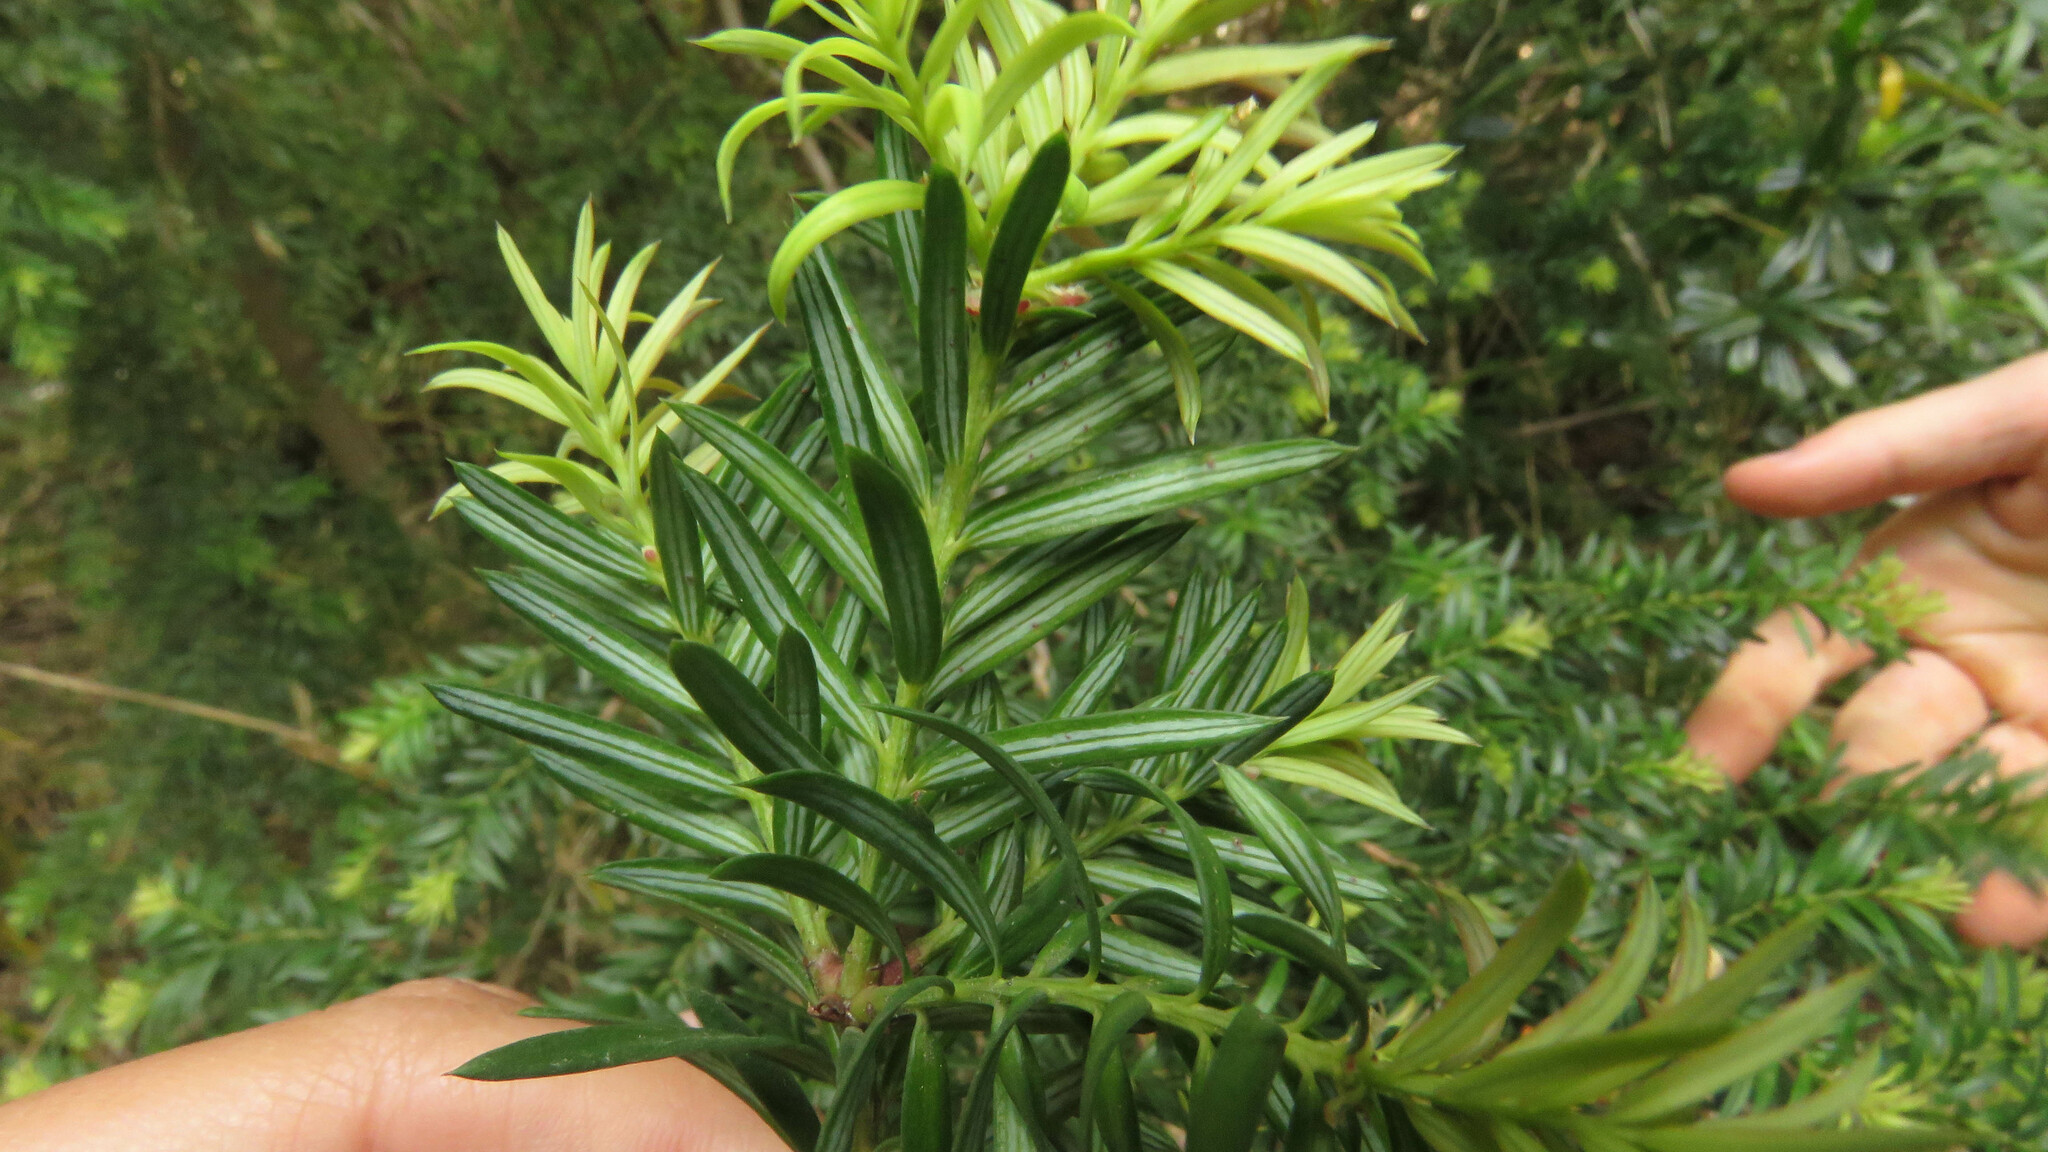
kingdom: Plantae
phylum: Tracheophyta
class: Pinopsida
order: Pinales
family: Podocarpaceae
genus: Saxegothaea
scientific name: Saxegothaea conspicua
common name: Prince albert's yew
